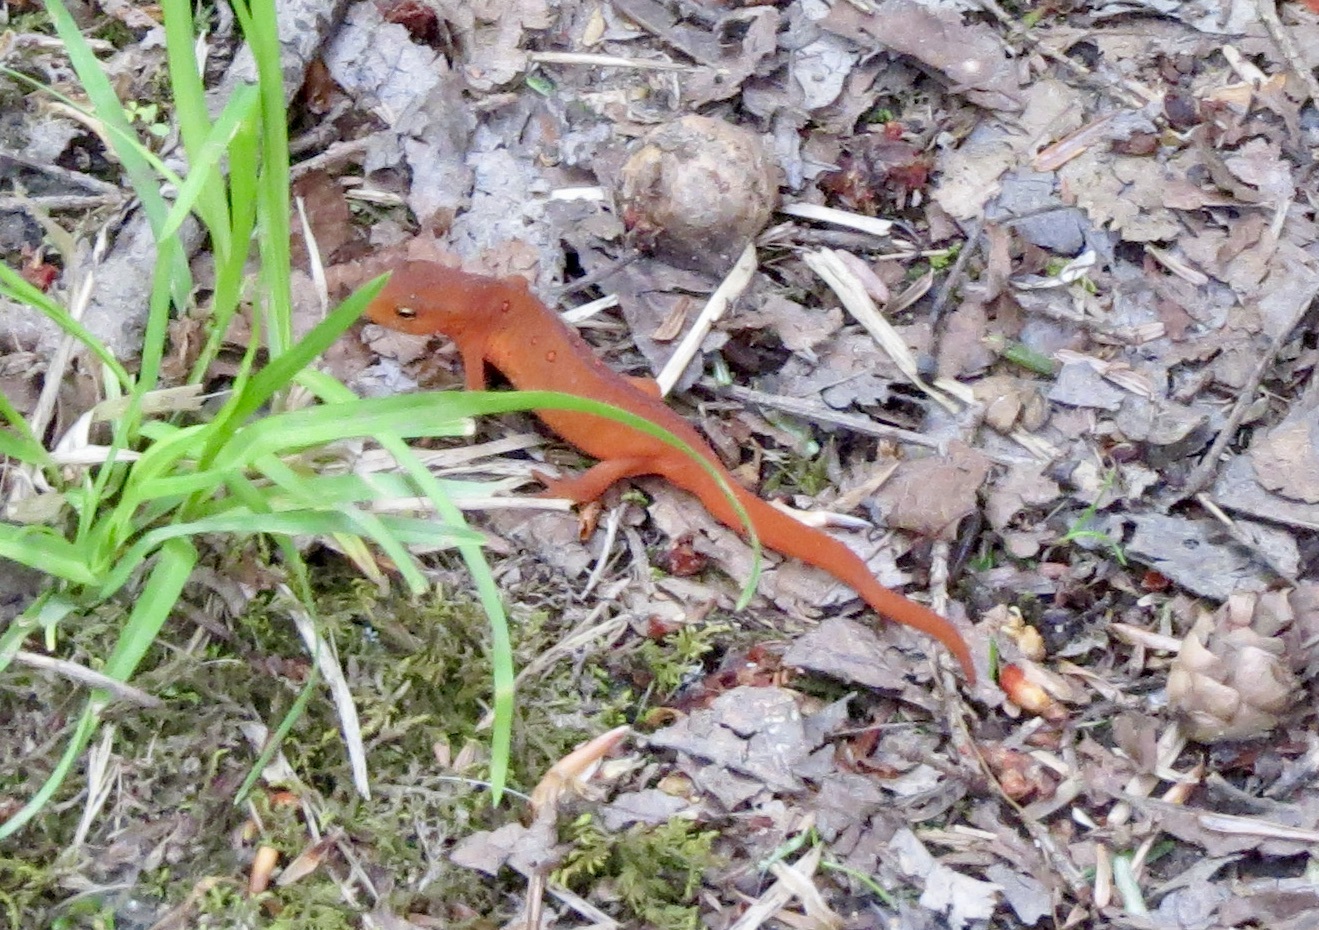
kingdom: Animalia
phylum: Chordata
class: Amphibia
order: Caudata
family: Salamandridae
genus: Notophthalmus
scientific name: Notophthalmus viridescens
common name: Eastern newt
